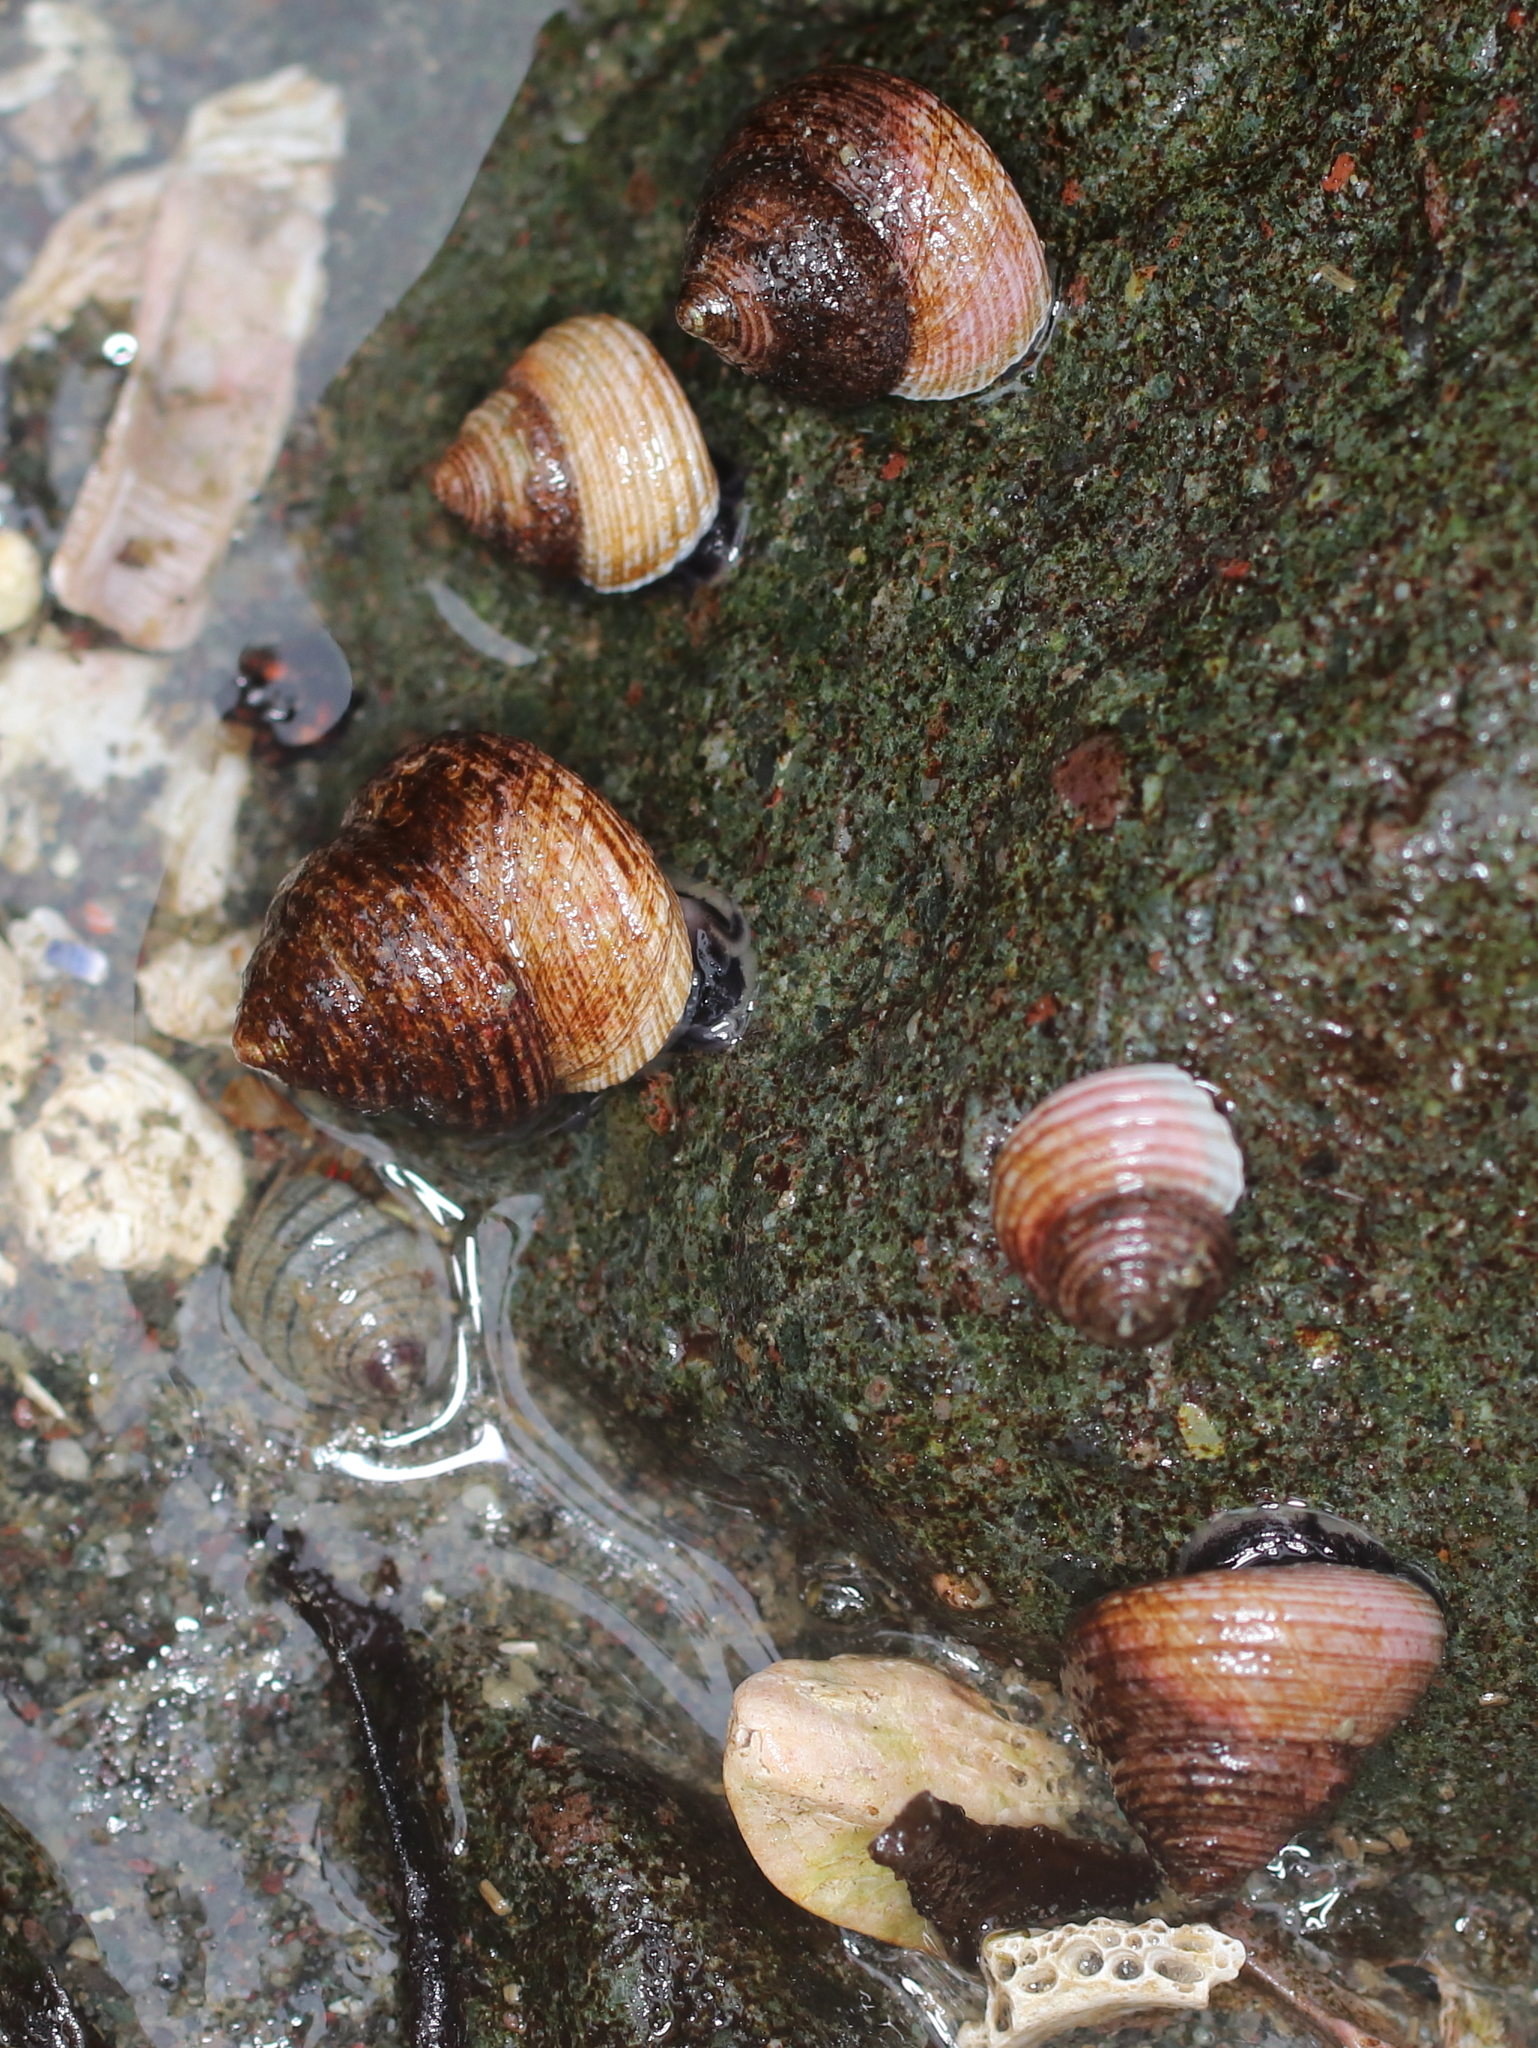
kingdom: Animalia
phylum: Mollusca
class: Gastropoda
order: Trochida
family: Margaritidae
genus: Margarites
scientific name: Margarites pupillus
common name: Puppet margarite
